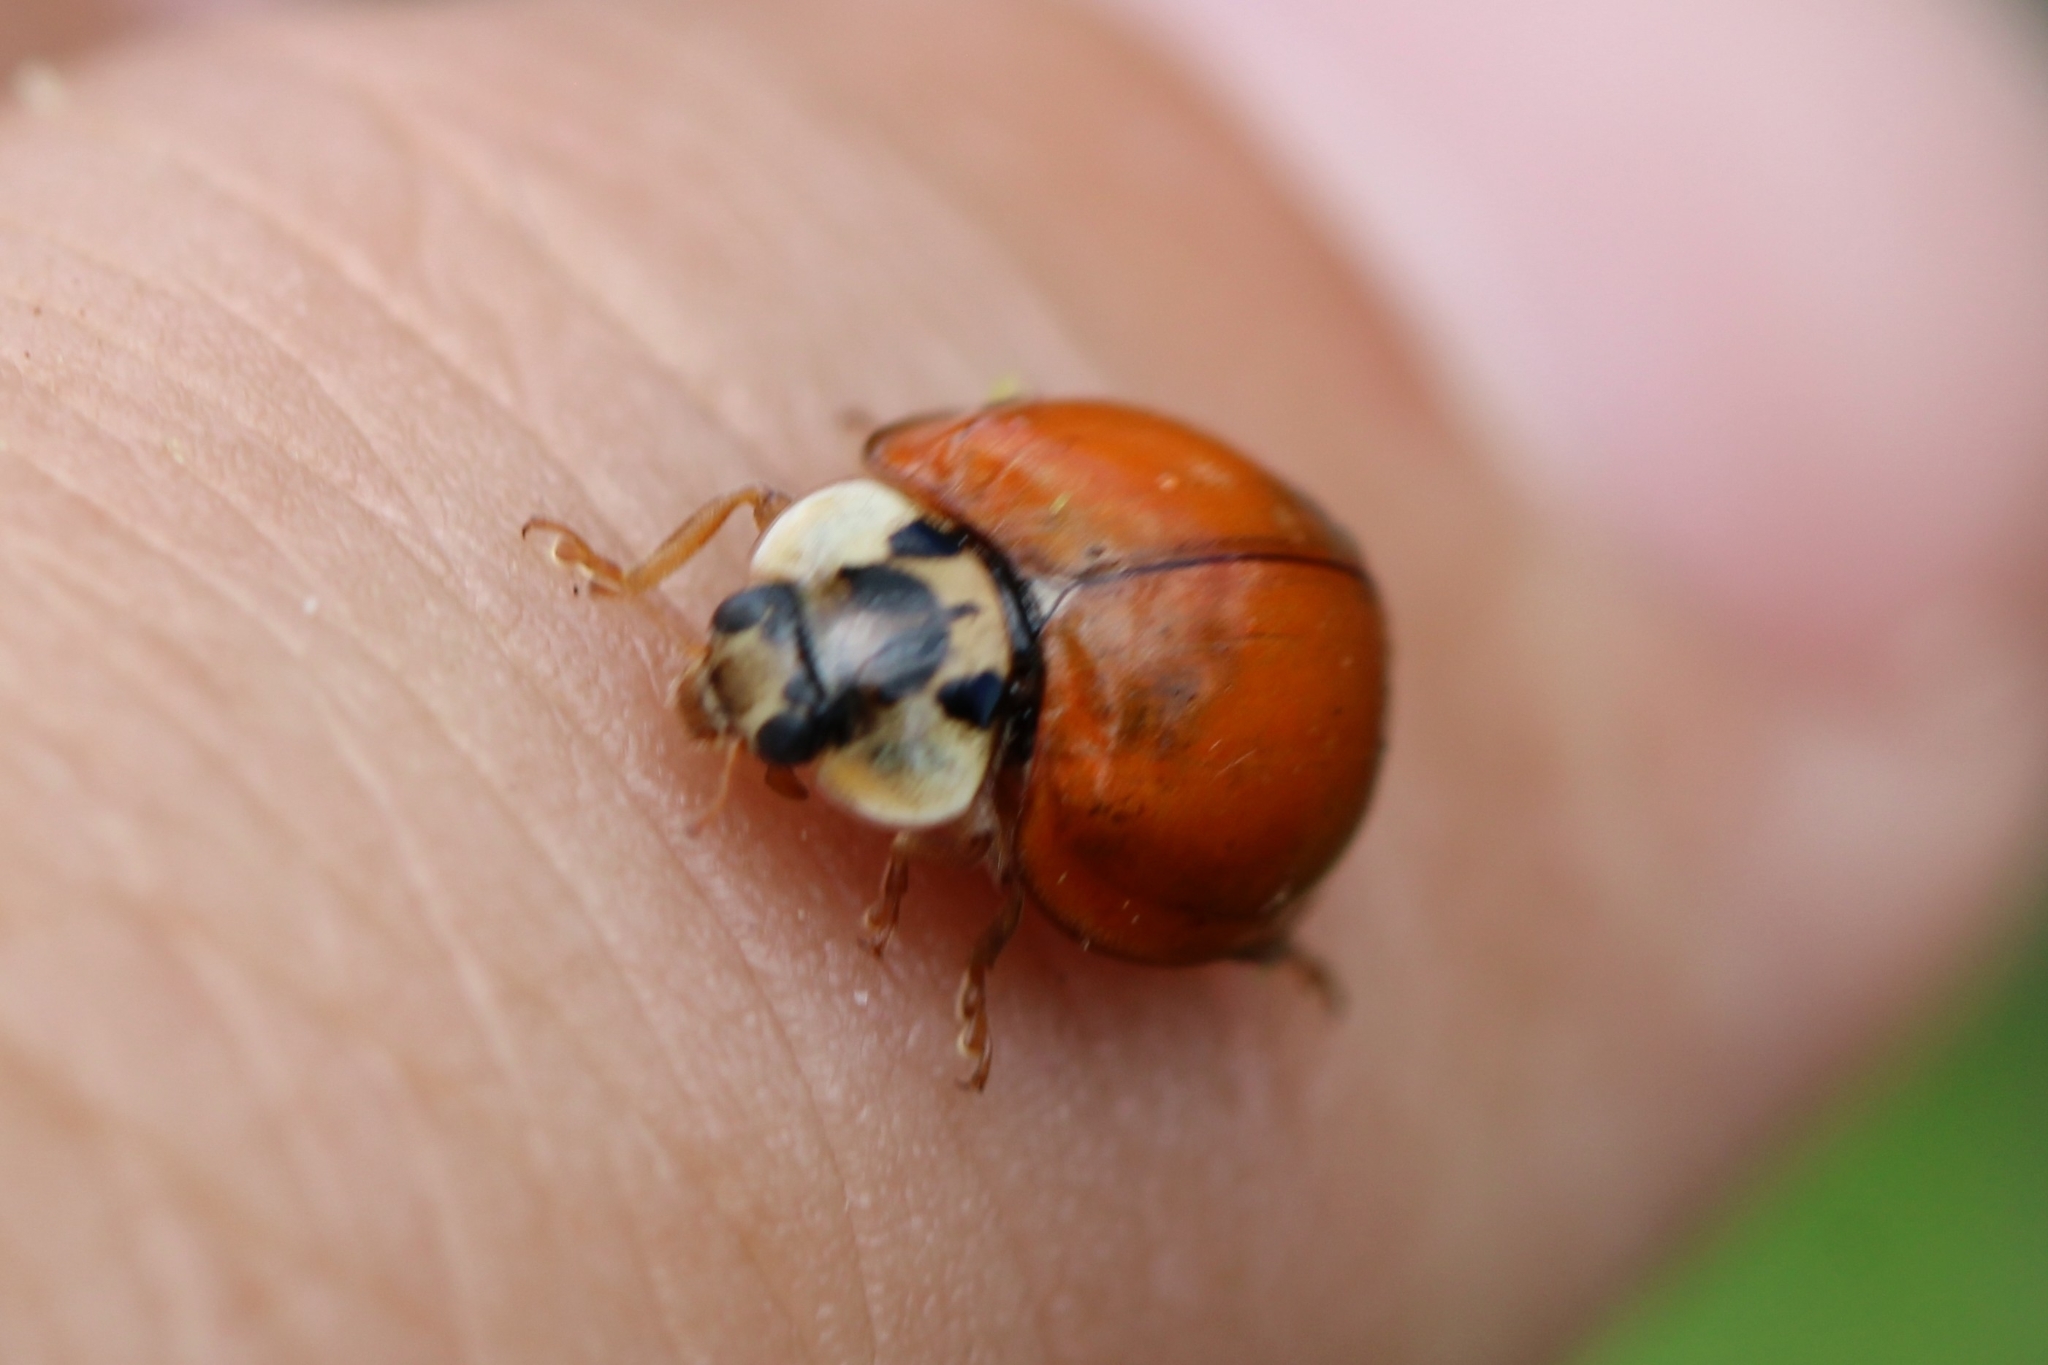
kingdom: Animalia
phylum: Arthropoda
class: Insecta
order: Coleoptera
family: Coccinellidae
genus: Harmonia
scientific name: Harmonia axyridis
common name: Harlequin ladybird
